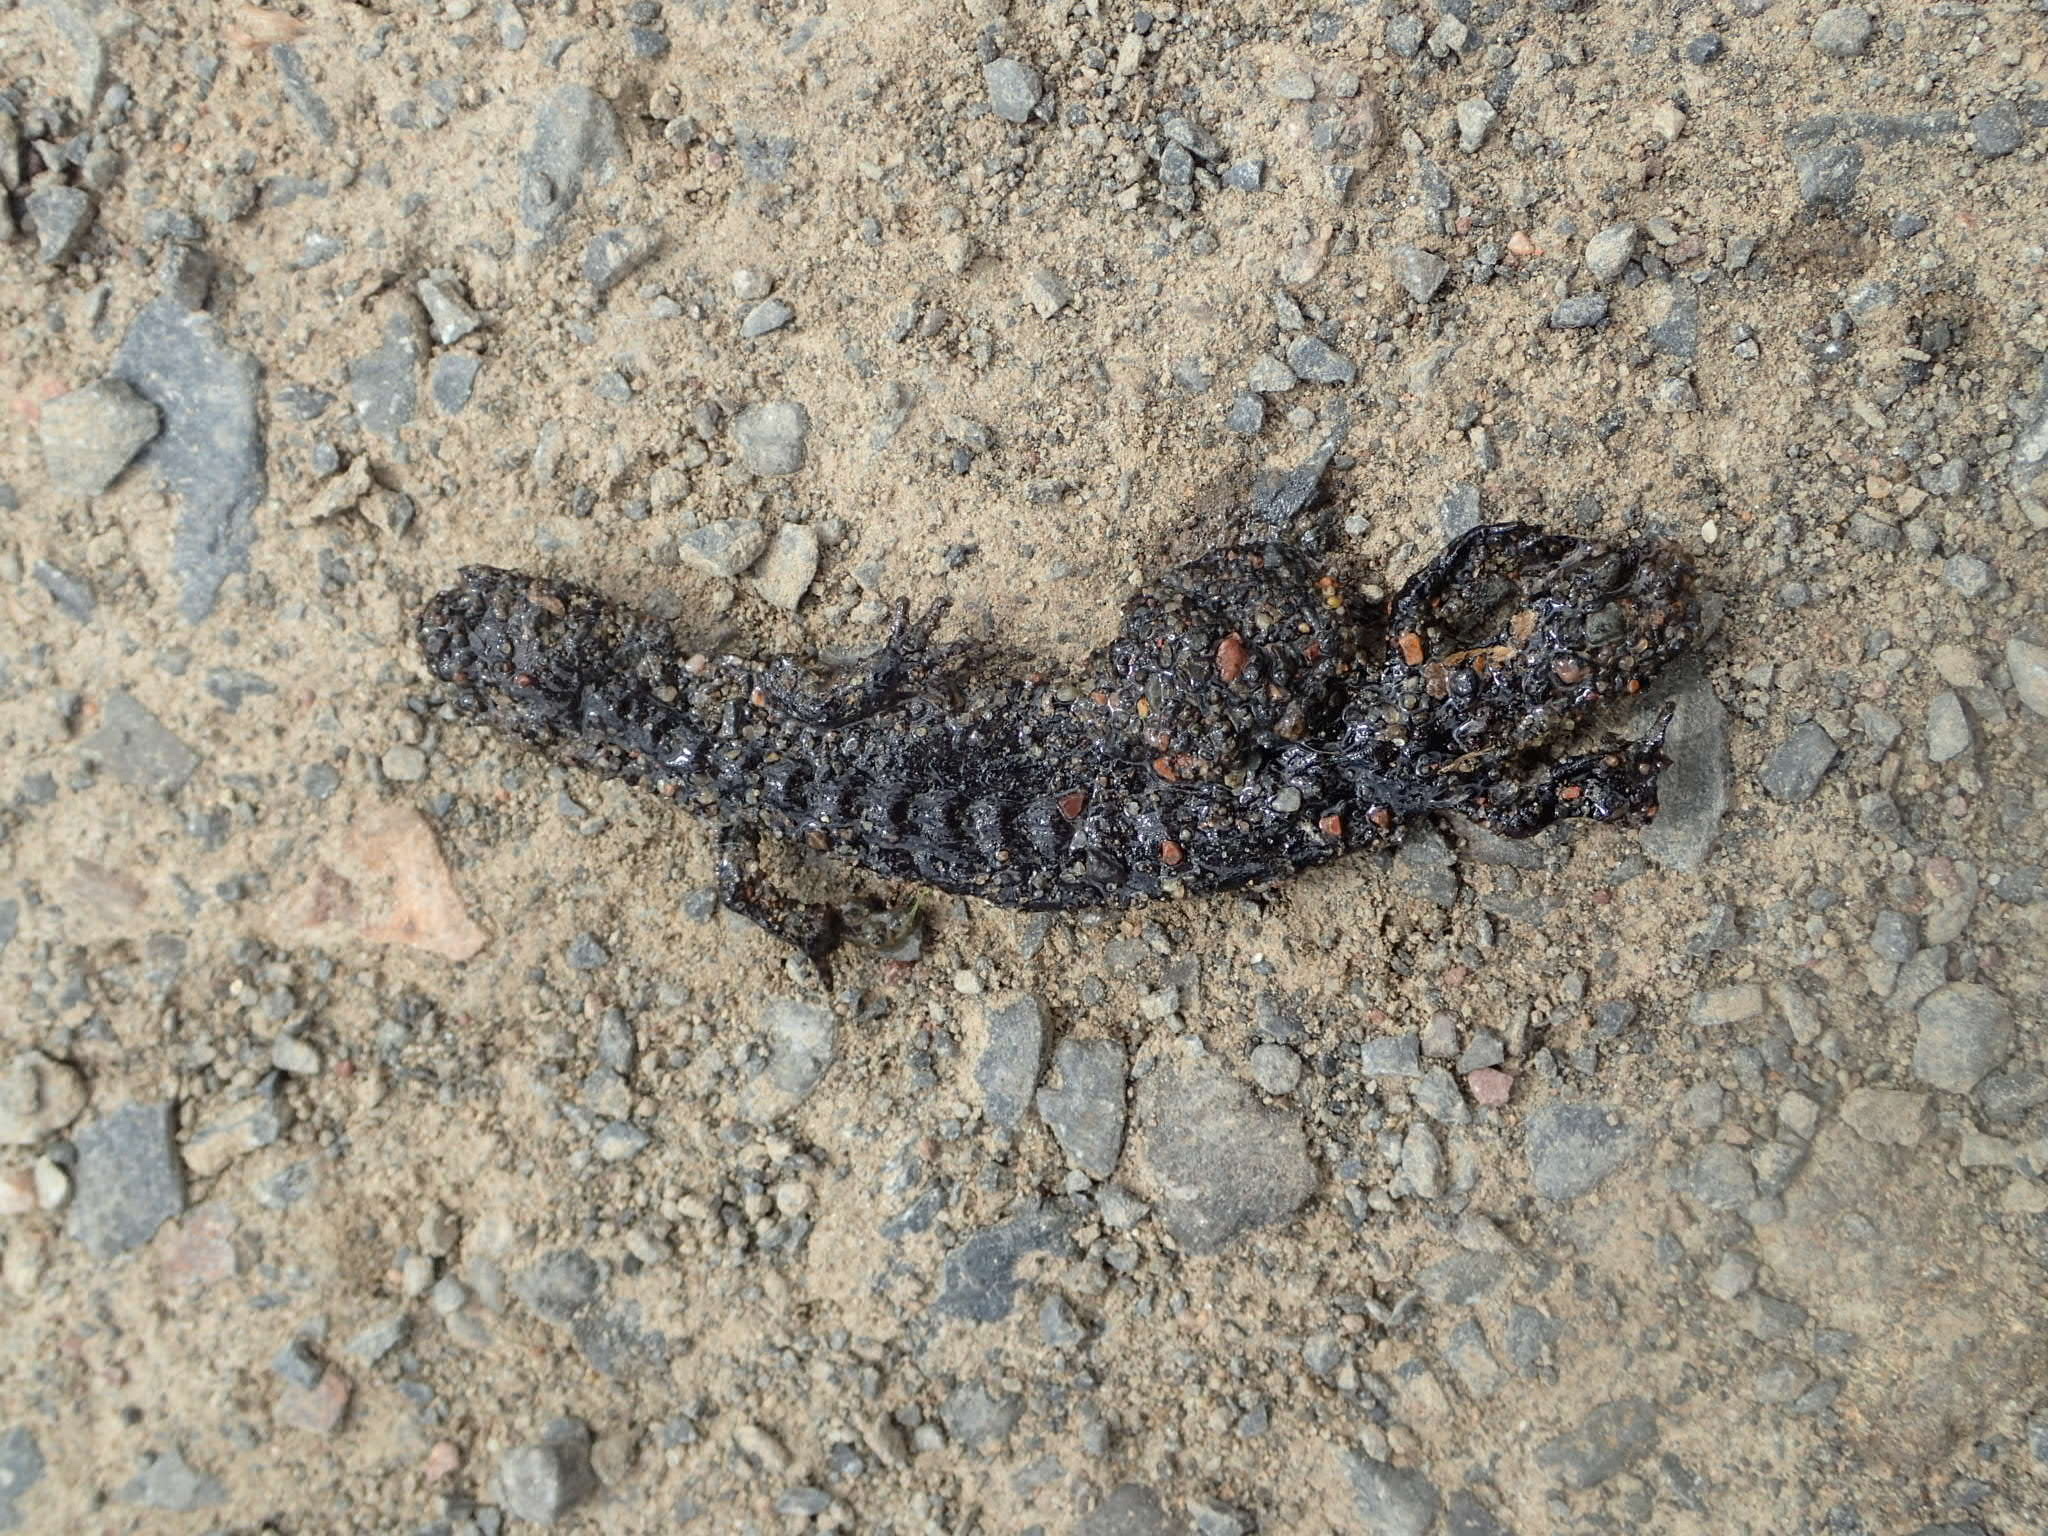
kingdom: Animalia
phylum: Chordata
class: Amphibia
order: Caudata
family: Ambystomatidae
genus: Ambystoma
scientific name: Ambystoma laterale
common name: Blue-spotted salamander
